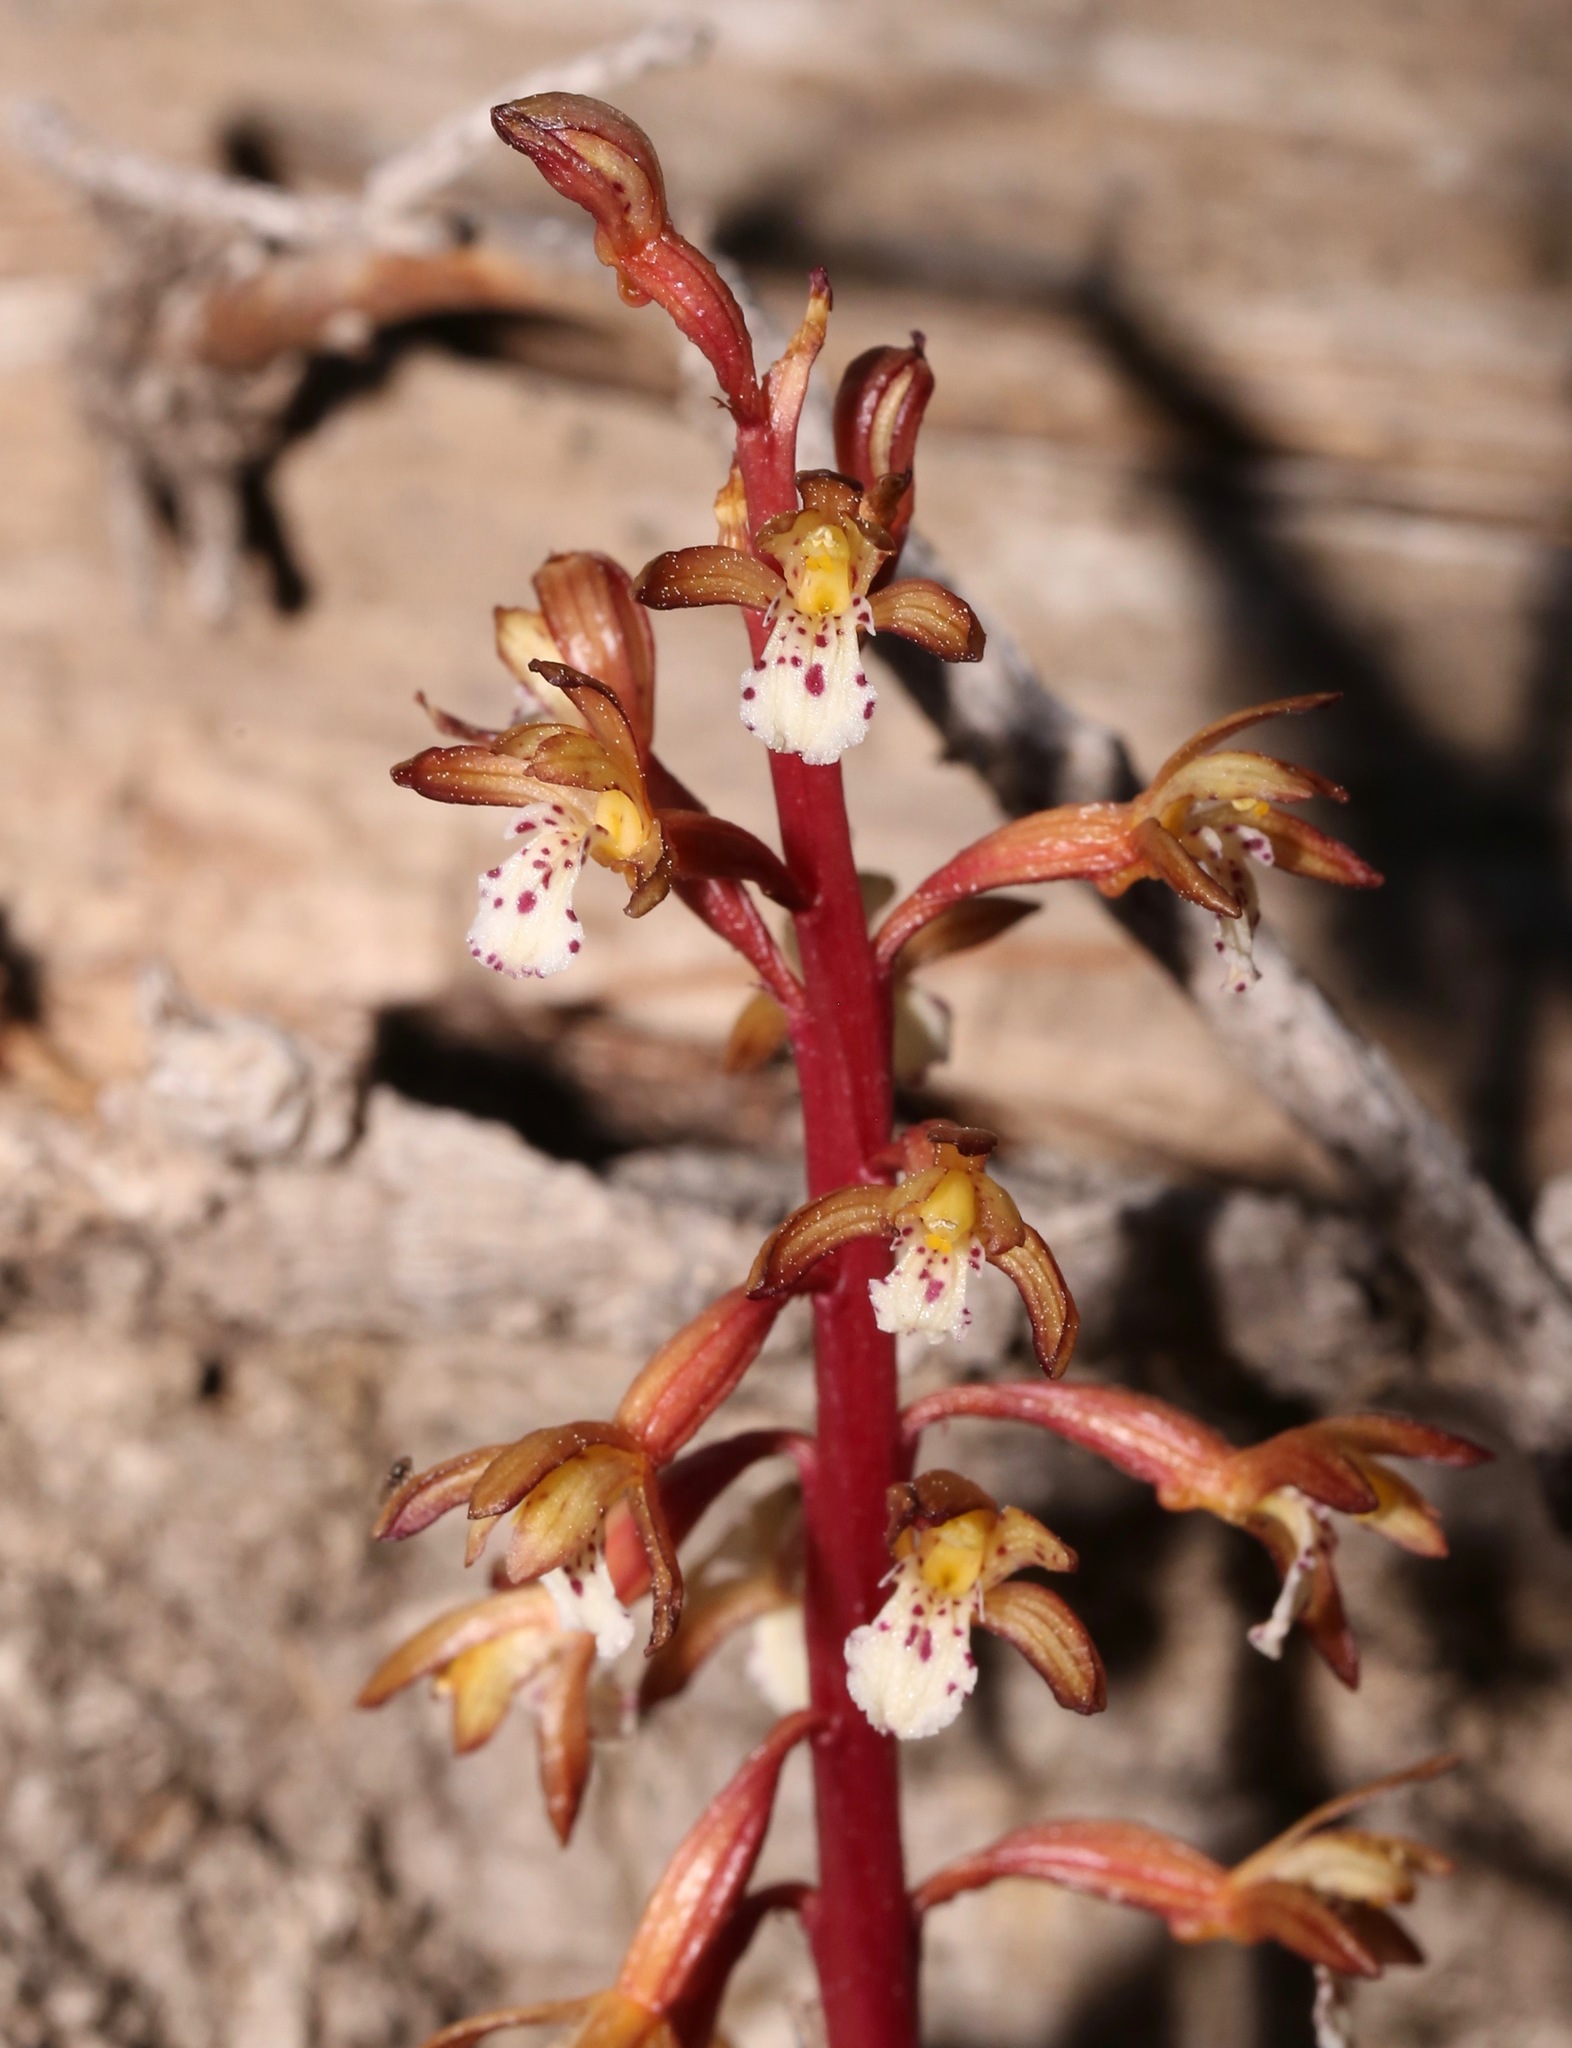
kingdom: Plantae
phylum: Tracheophyta
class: Liliopsida
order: Asparagales
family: Orchidaceae
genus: Corallorhiza
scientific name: Corallorhiza maculata
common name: Spotted coralroot
